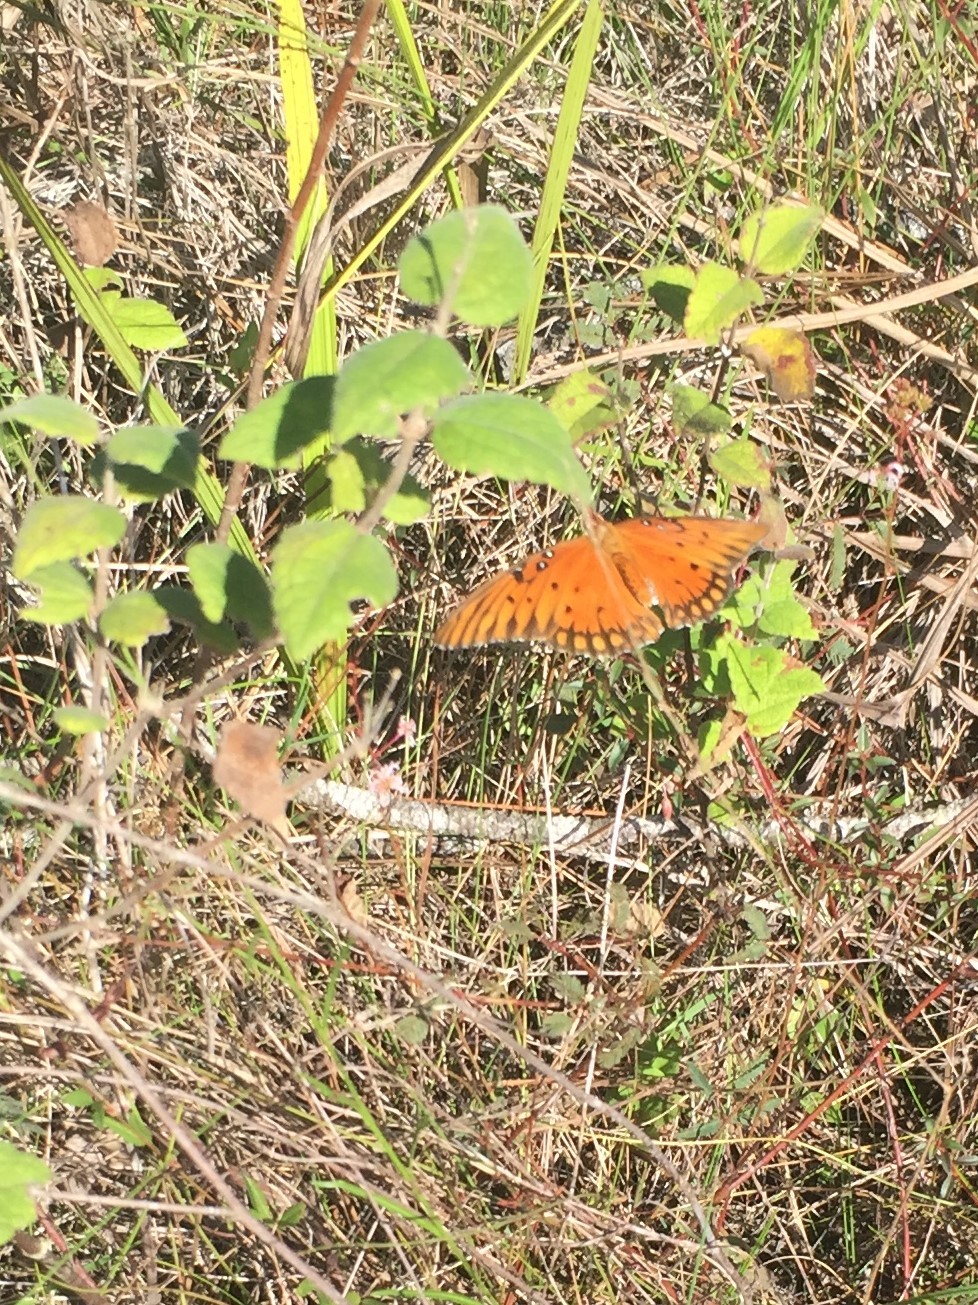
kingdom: Animalia
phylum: Arthropoda
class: Insecta
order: Lepidoptera
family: Nymphalidae
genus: Dione
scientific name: Dione vanillae
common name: Gulf fritillary
